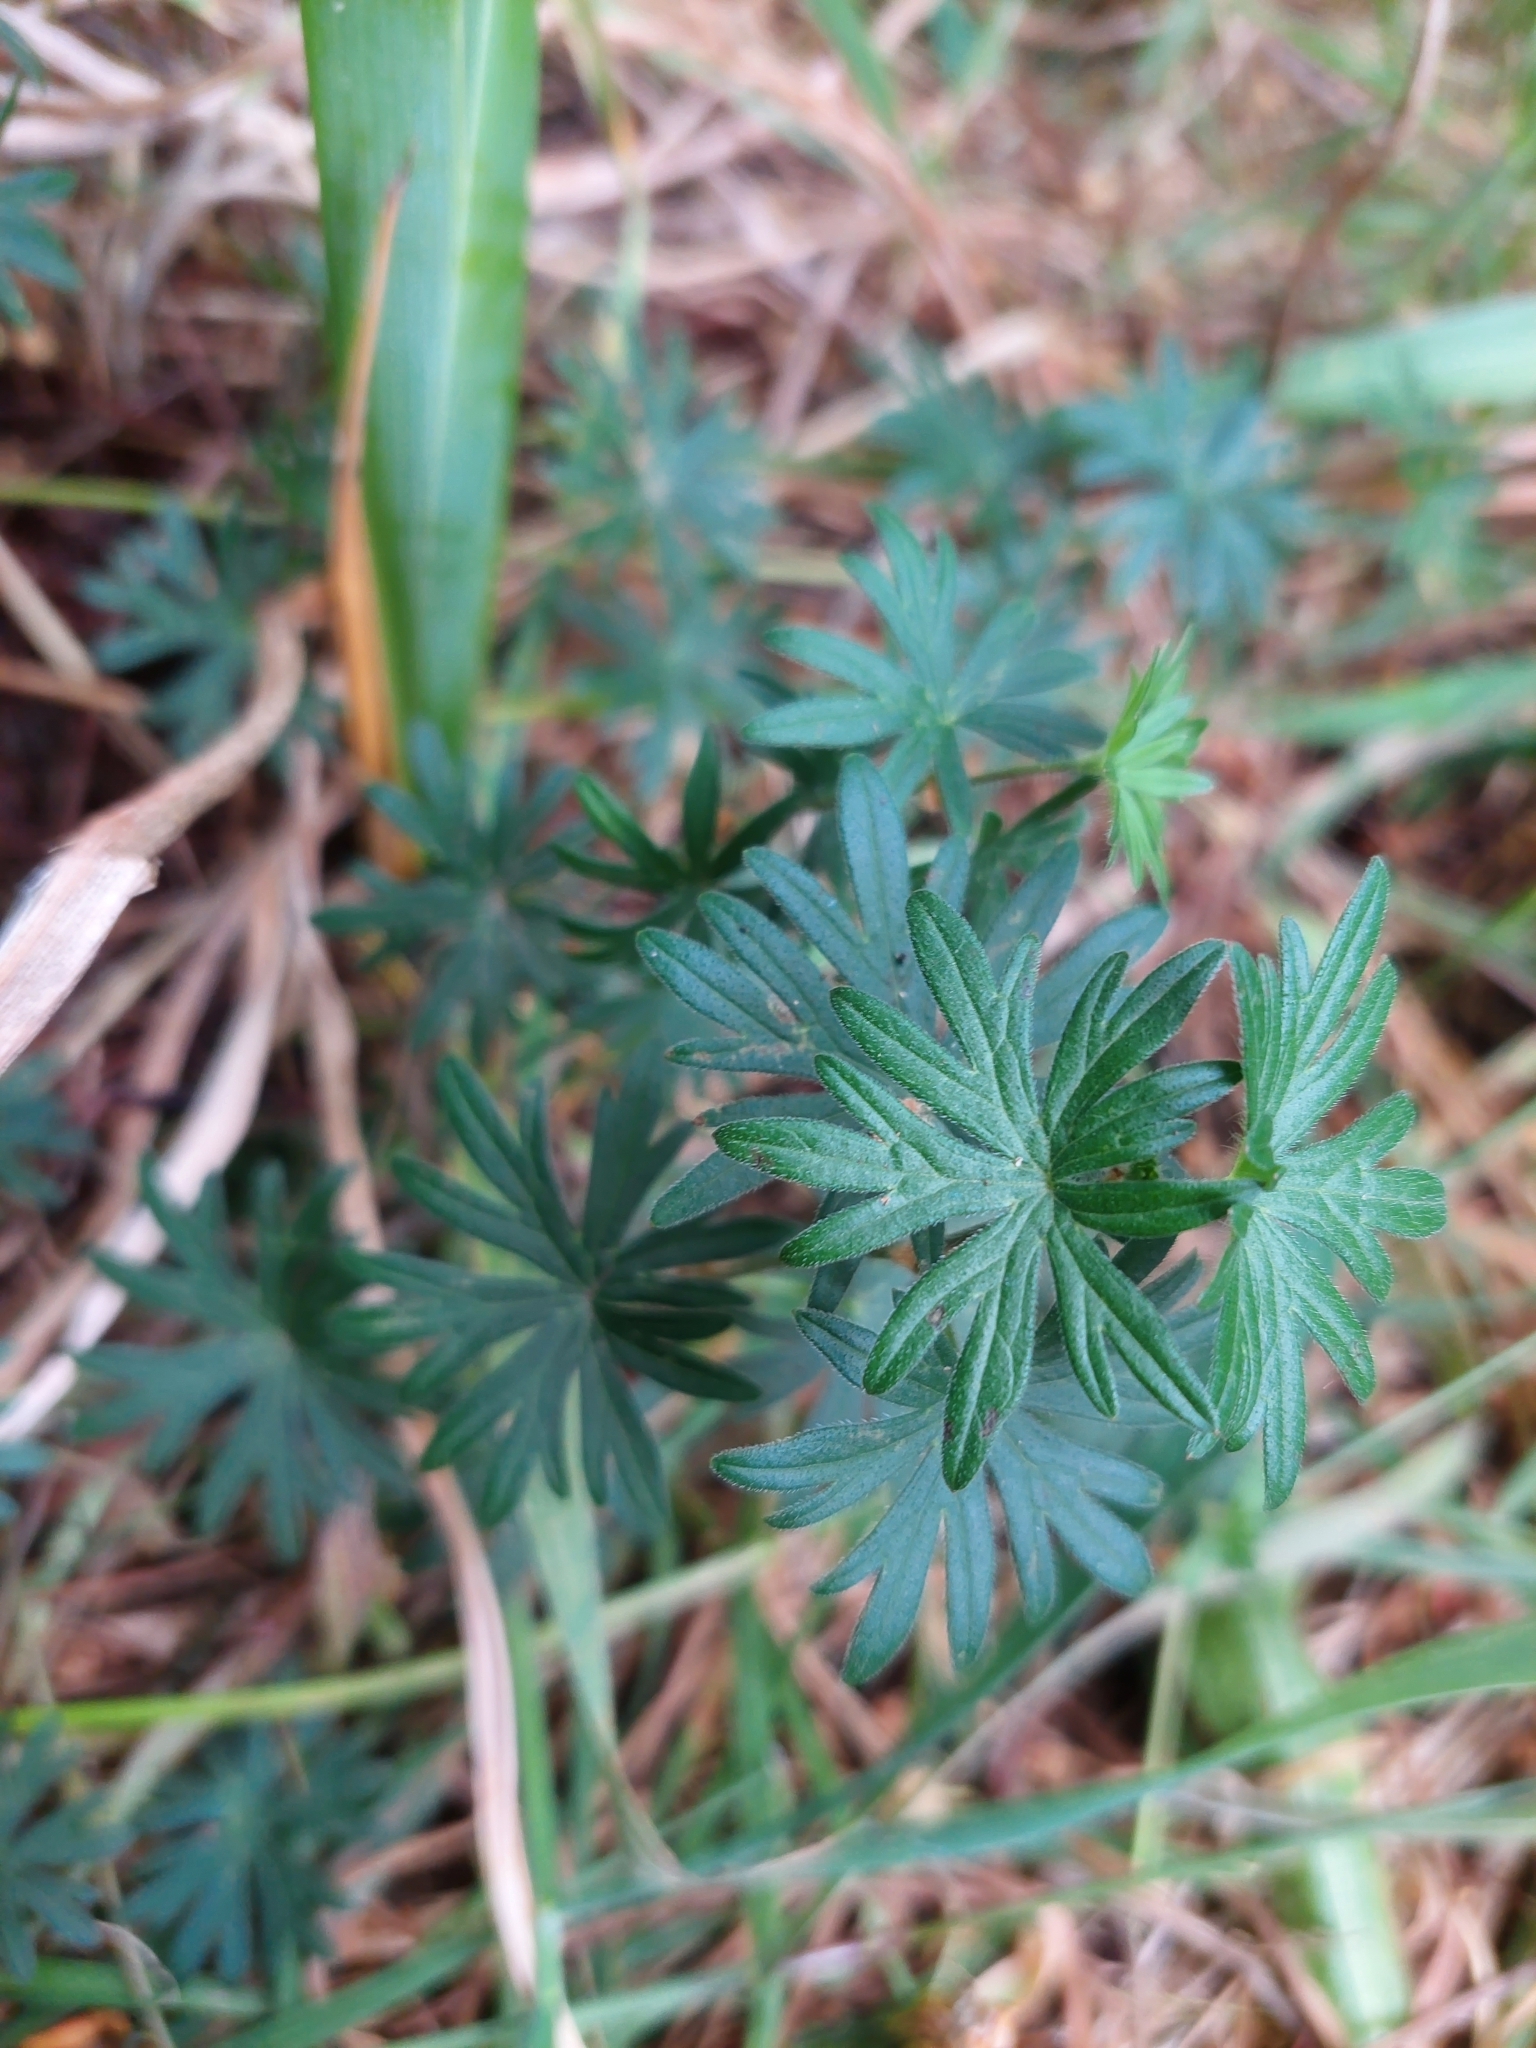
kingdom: Plantae
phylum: Tracheophyta
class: Magnoliopsida
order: Geraniales
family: Geraniaceae
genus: Geranium
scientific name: Geranium sanguineum
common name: Bloody crane's-bill
